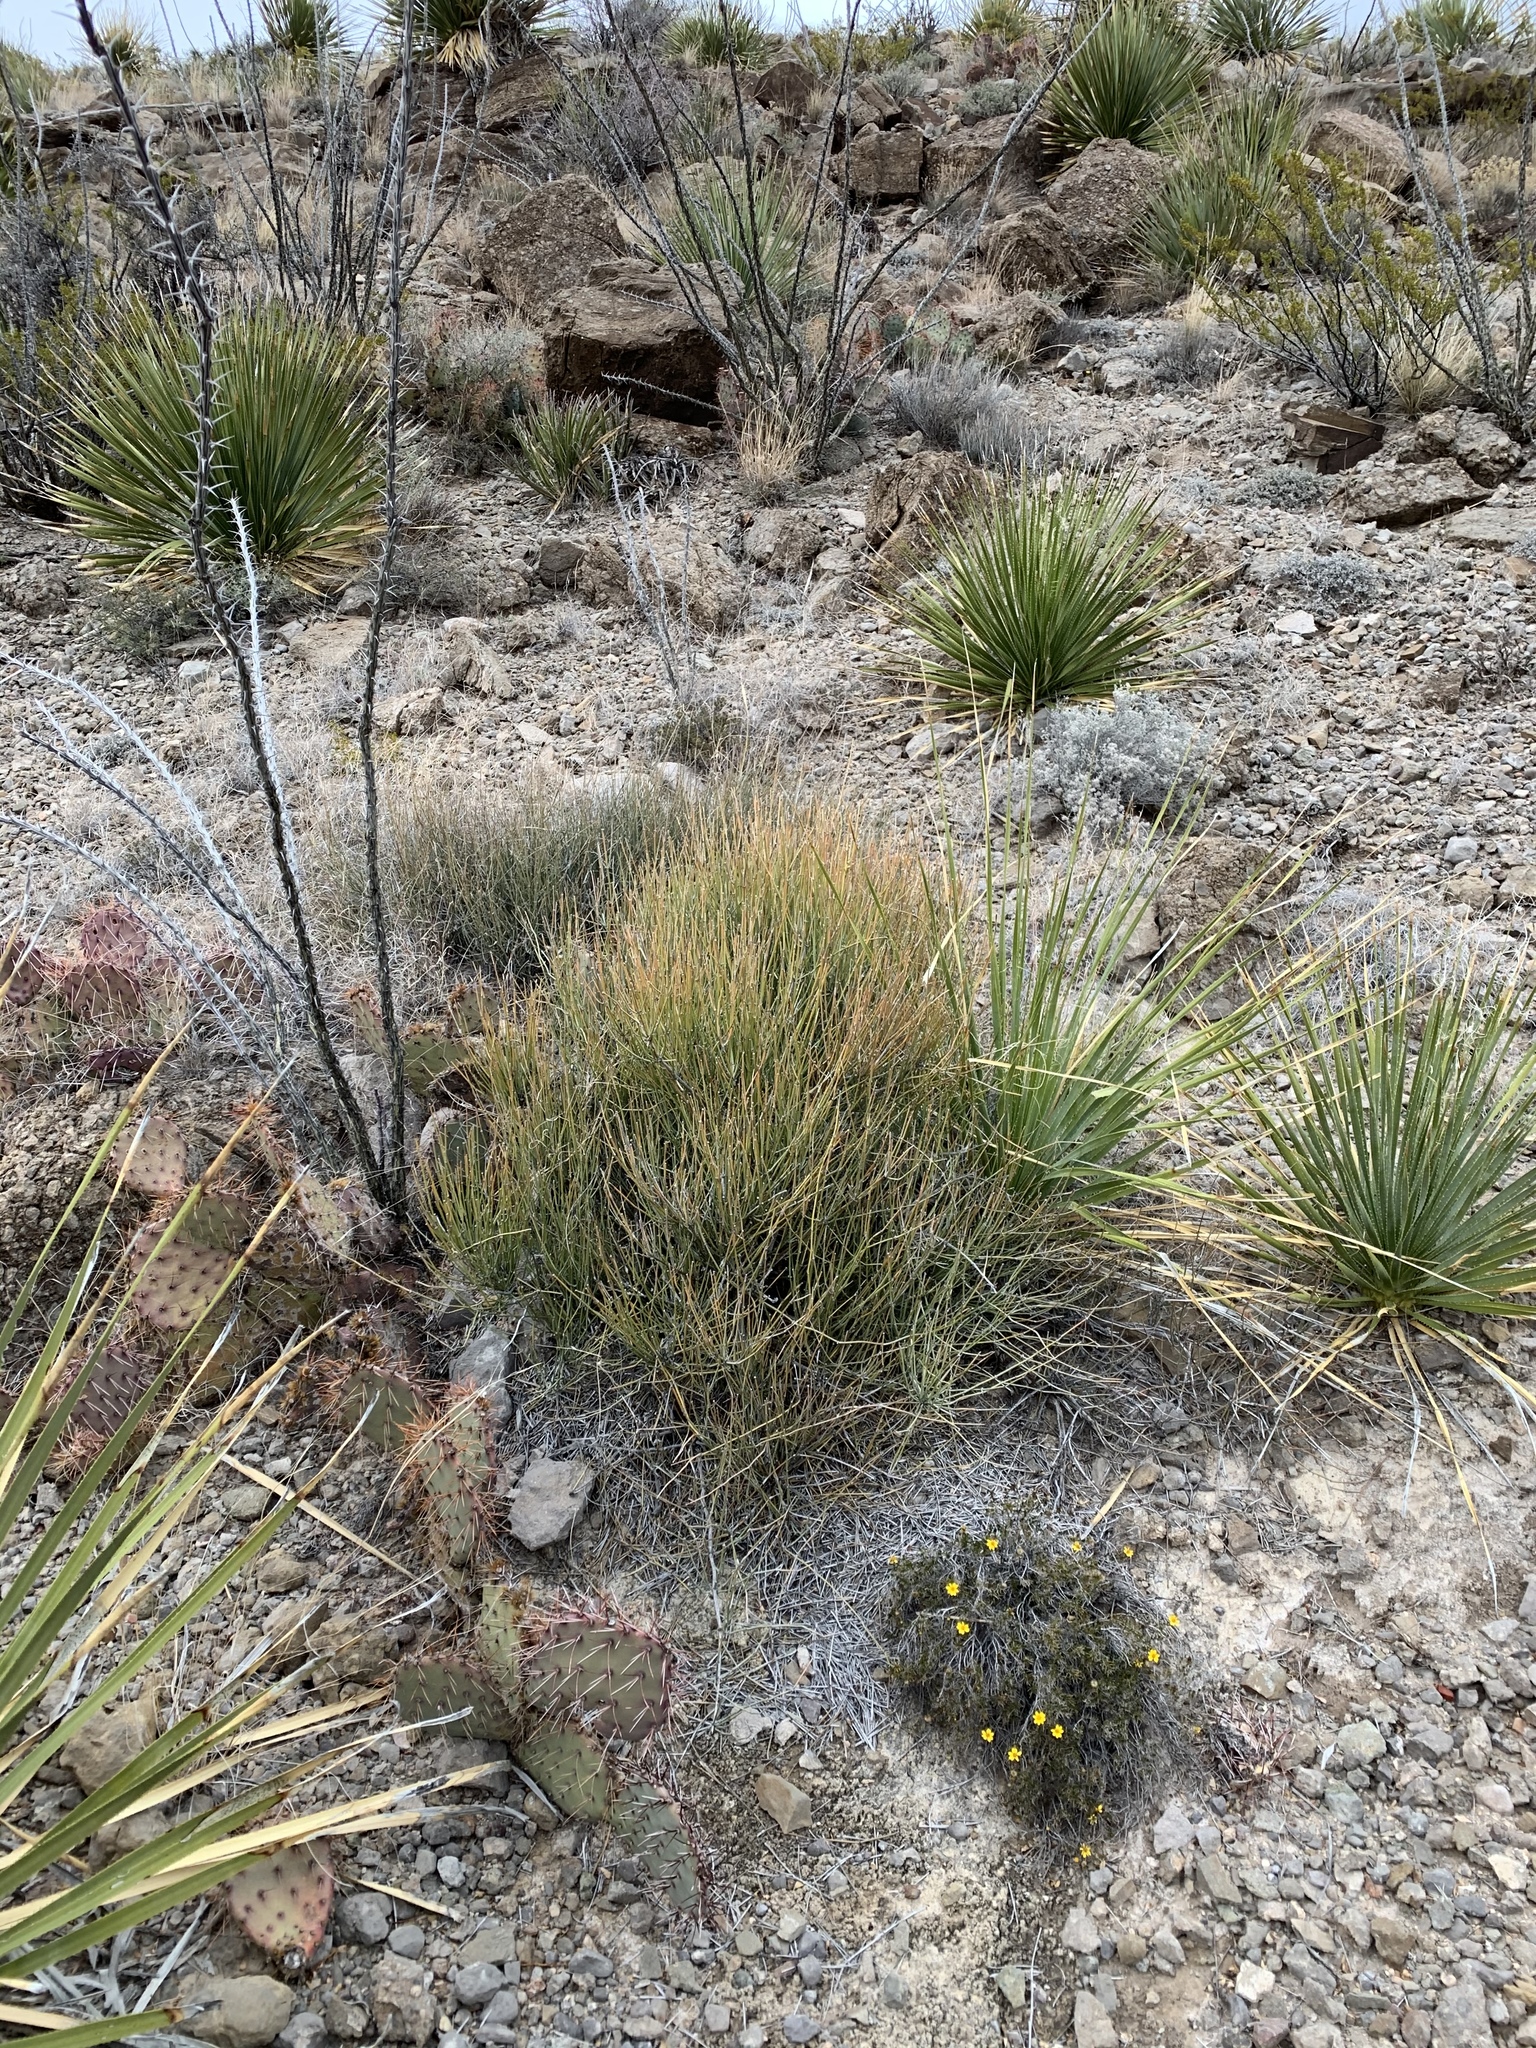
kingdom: Plantae
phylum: Tracheophyta
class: Gnetopsida
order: Ephedrales
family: Ephedraceae
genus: Ephedra
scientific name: Ephedra viridis
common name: Green ephedra
